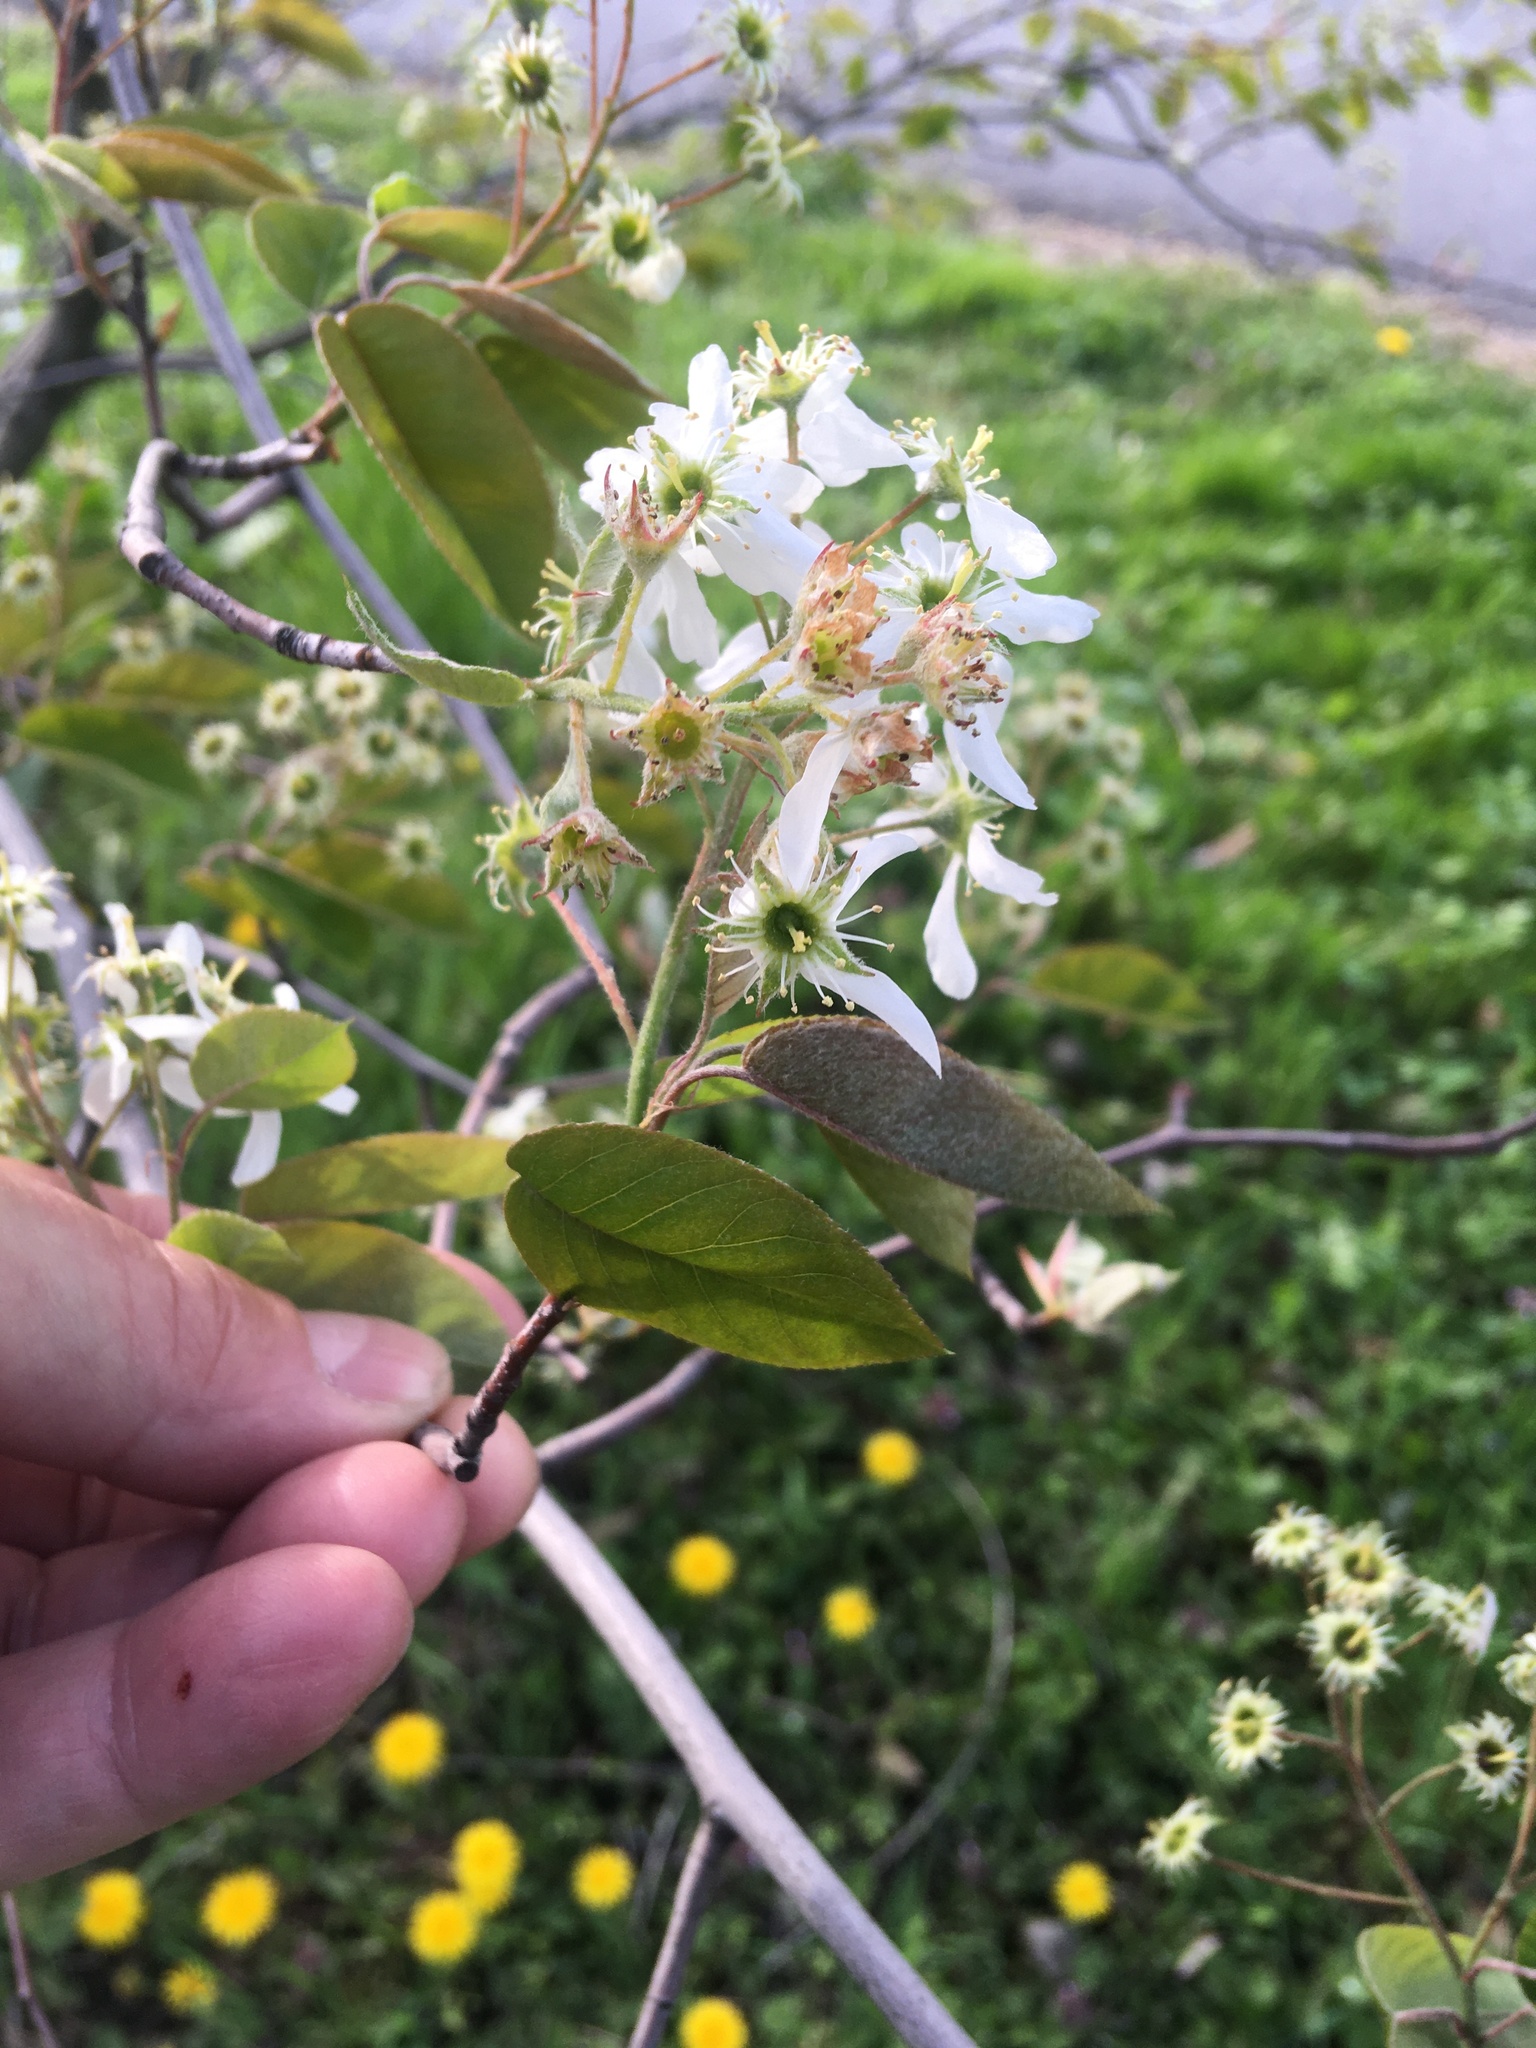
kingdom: Plantae
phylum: Tracheophyta
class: Magnoliopsida
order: Rosales
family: Rosaceae
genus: Amelanchier
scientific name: Amelanchier arborea
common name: Downy serviceberry
